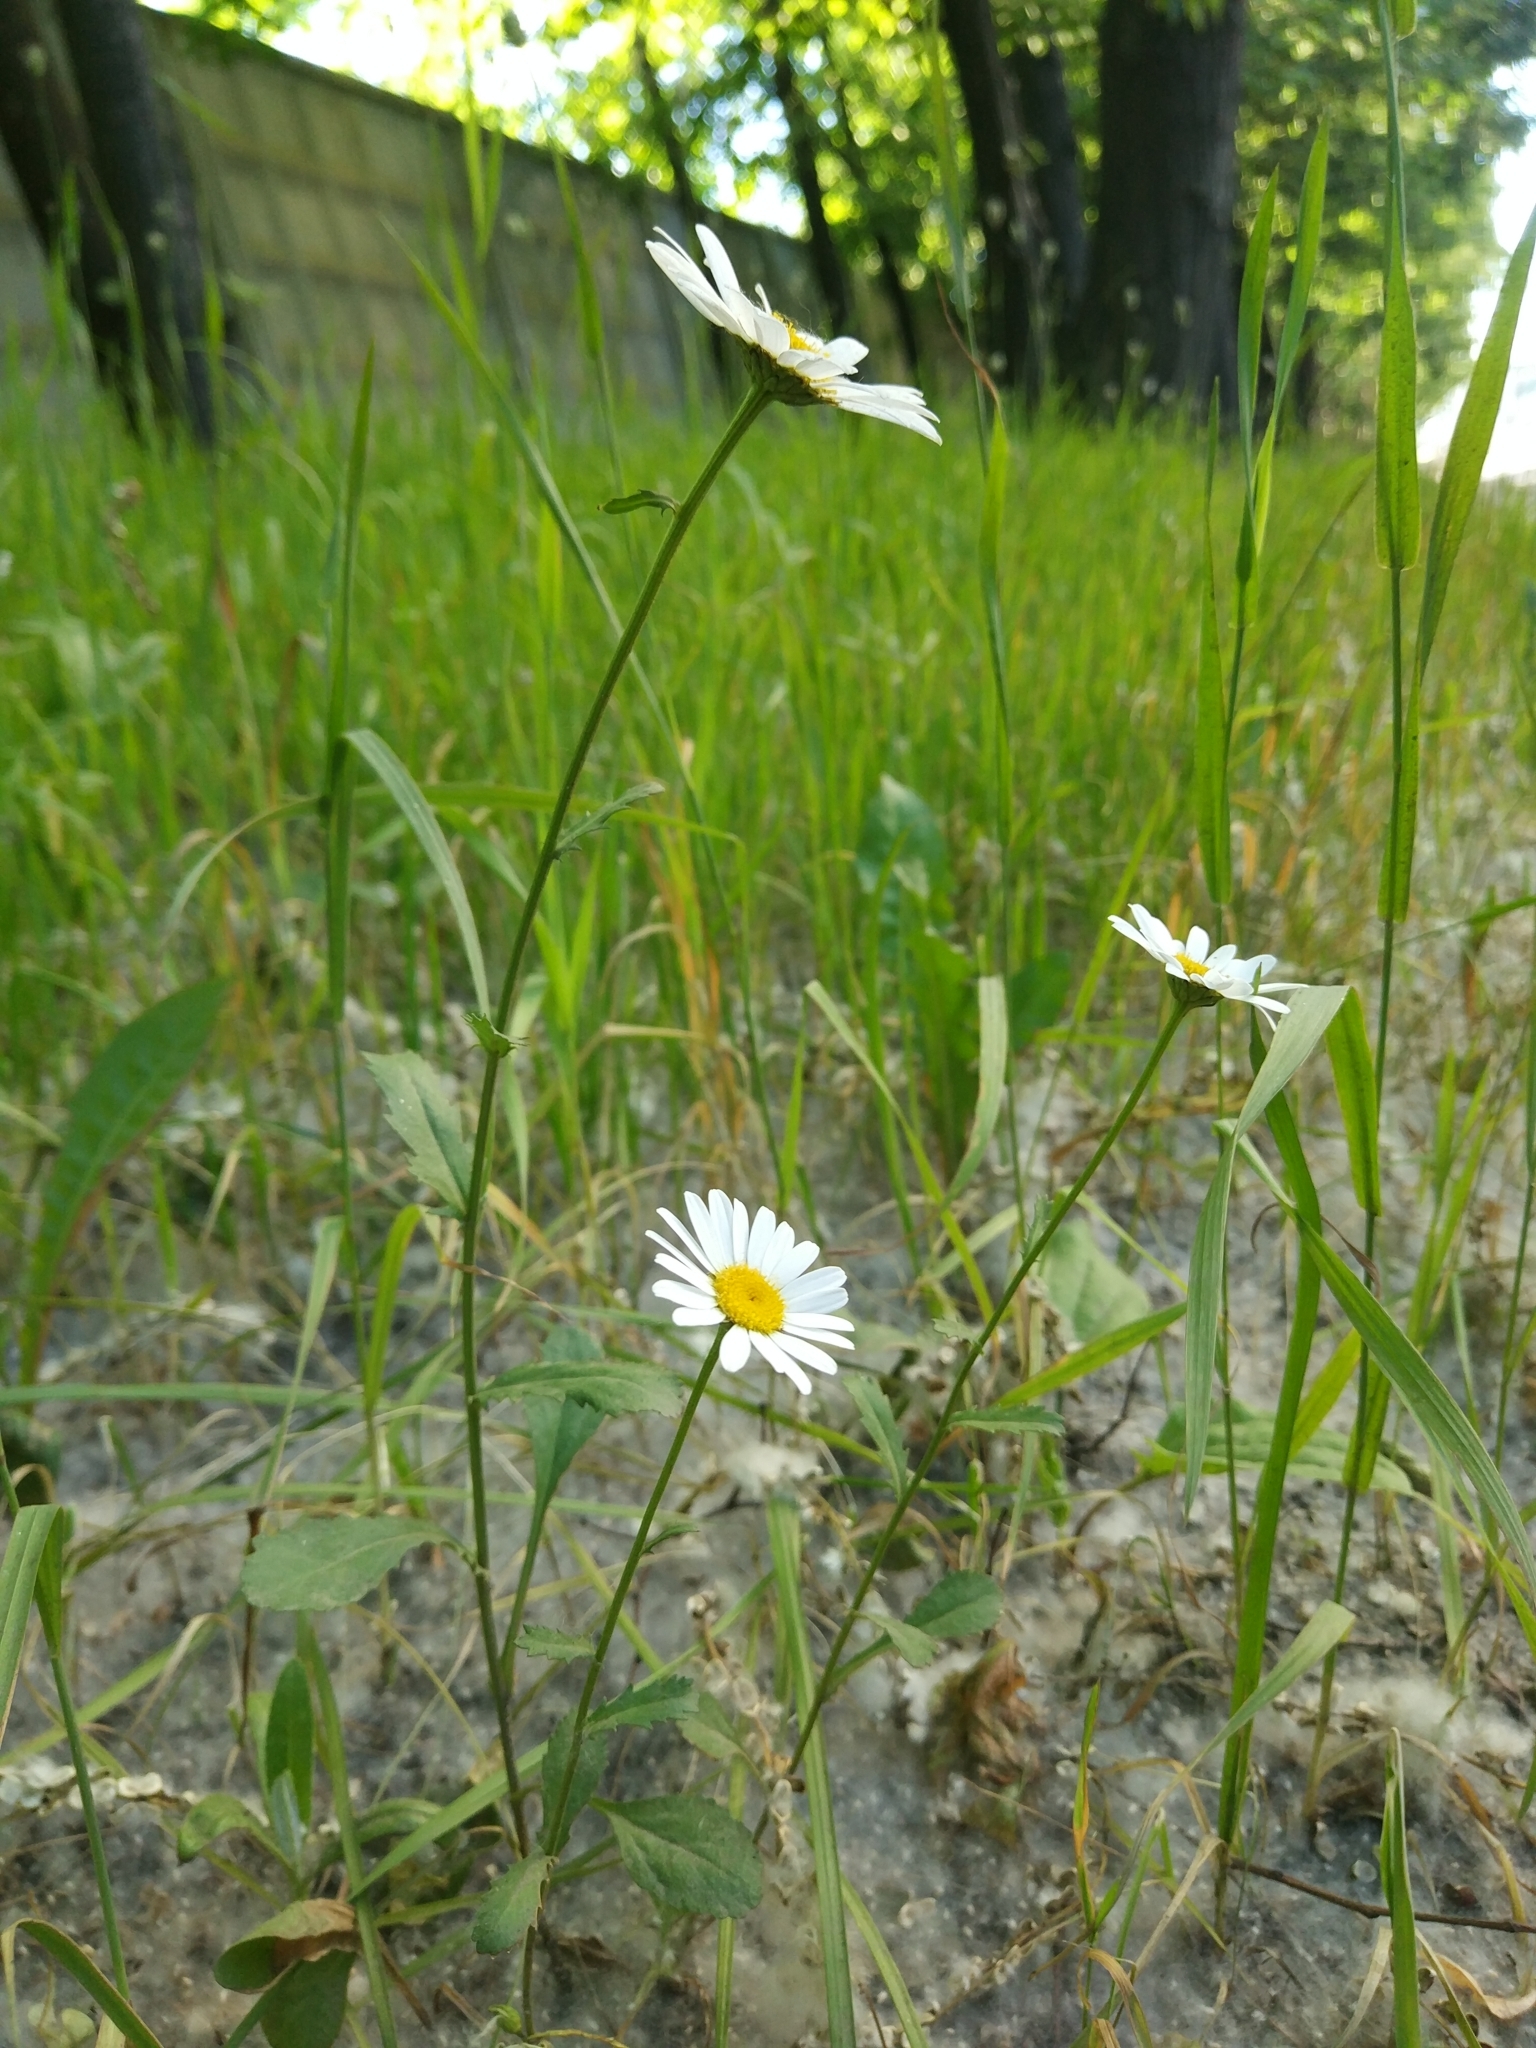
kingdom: Plantae
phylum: Tracheophyta
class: Magnoliopsida
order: Asterales
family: Asteraceae
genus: Leucanthemum
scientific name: Leucanthemum vulgare
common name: Oxeye daisy
